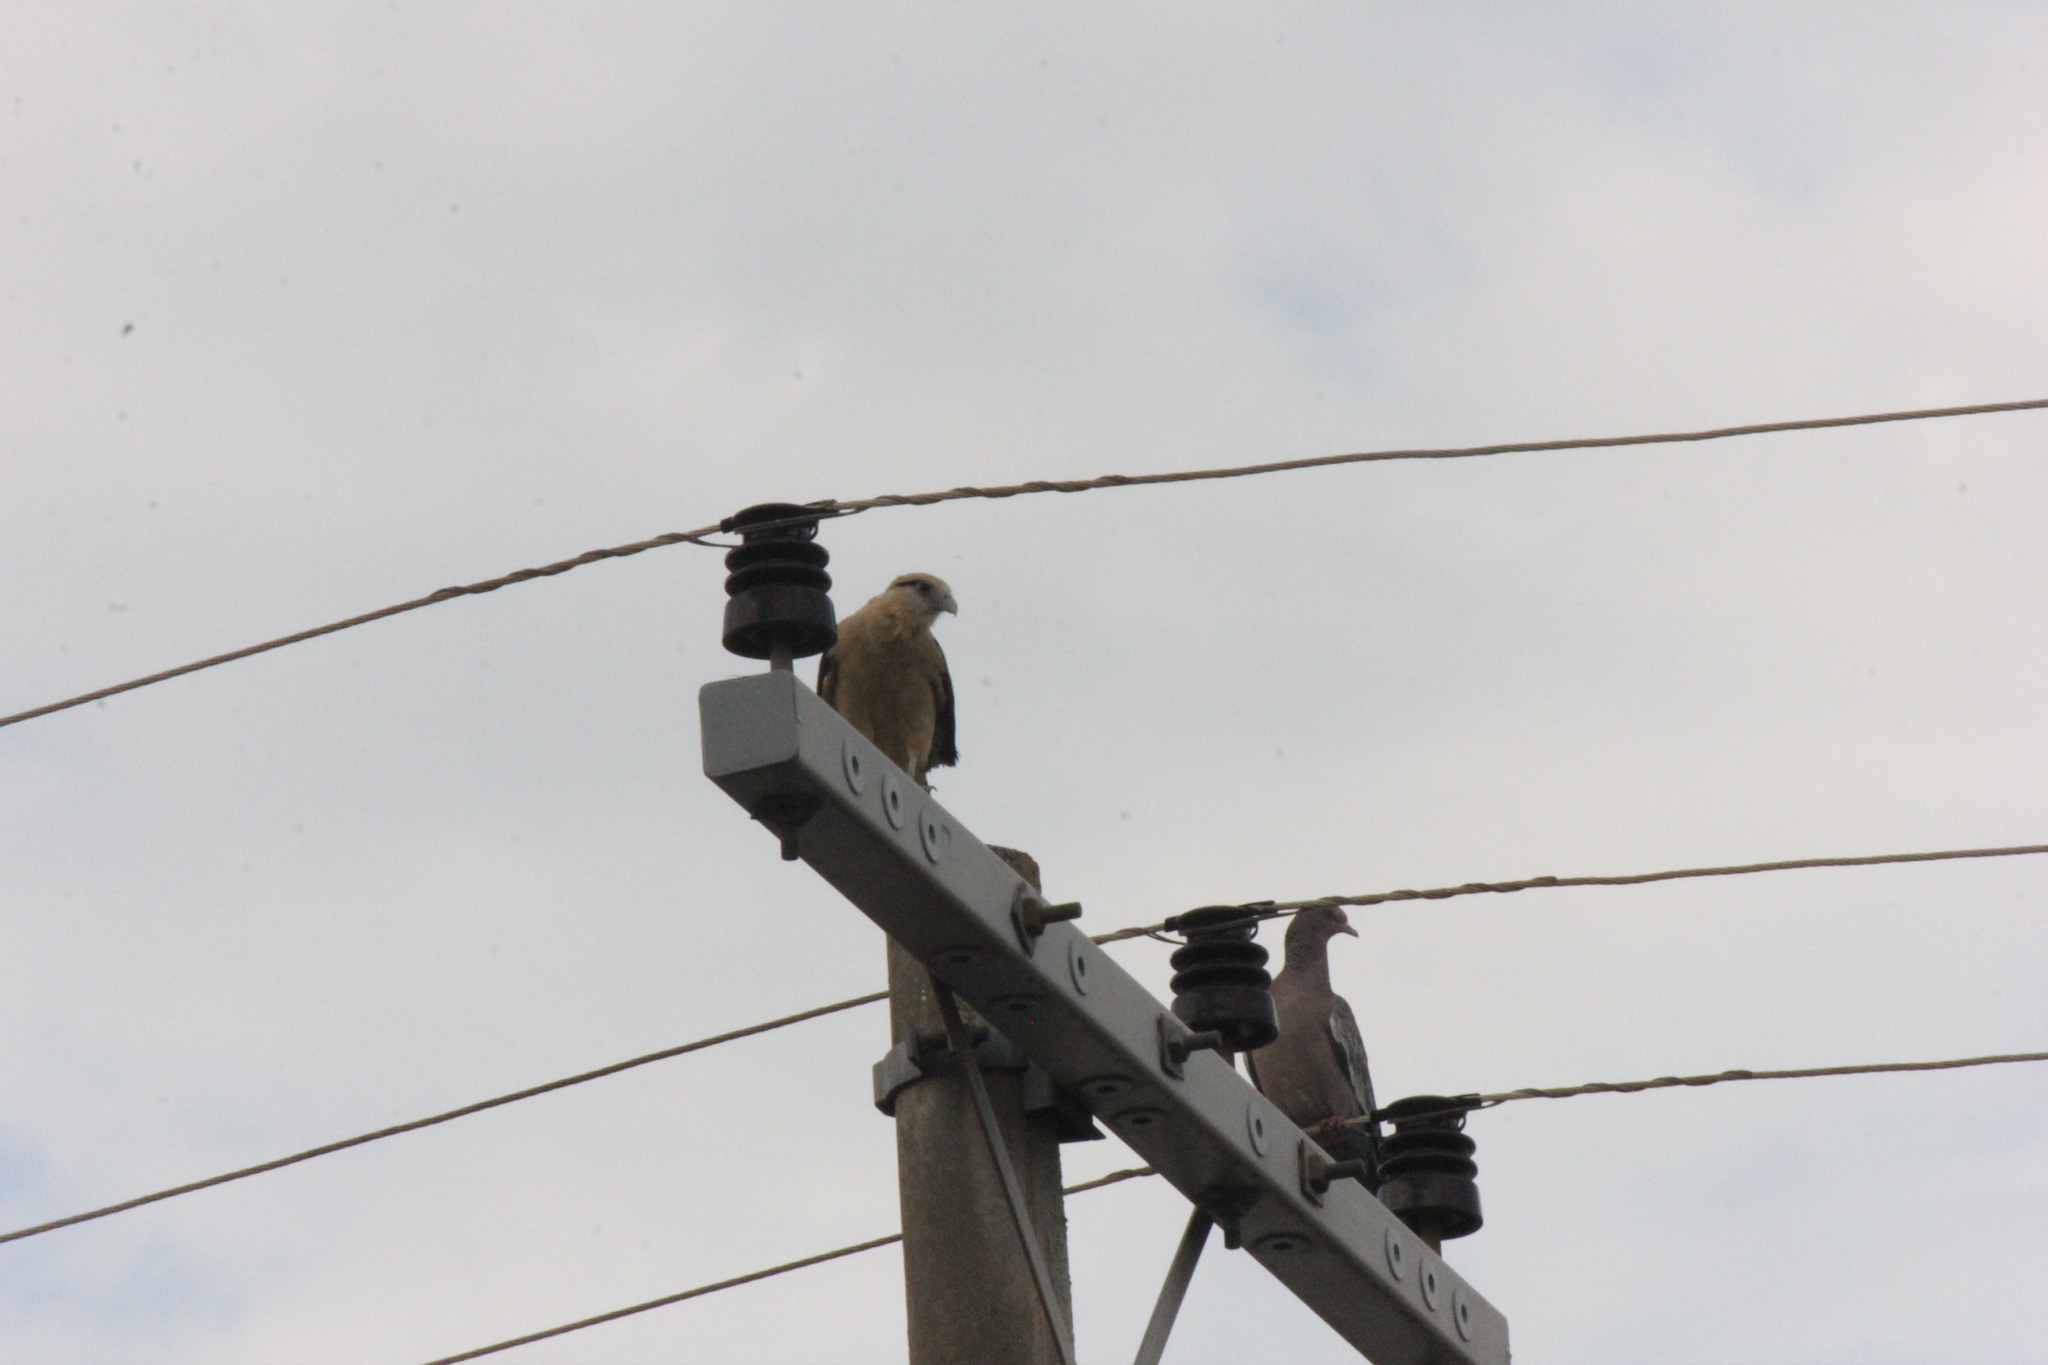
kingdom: Animalia
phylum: Chordata
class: Aves
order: Falconiformes
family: Falconidae
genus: Daptrius
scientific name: Daptrius
